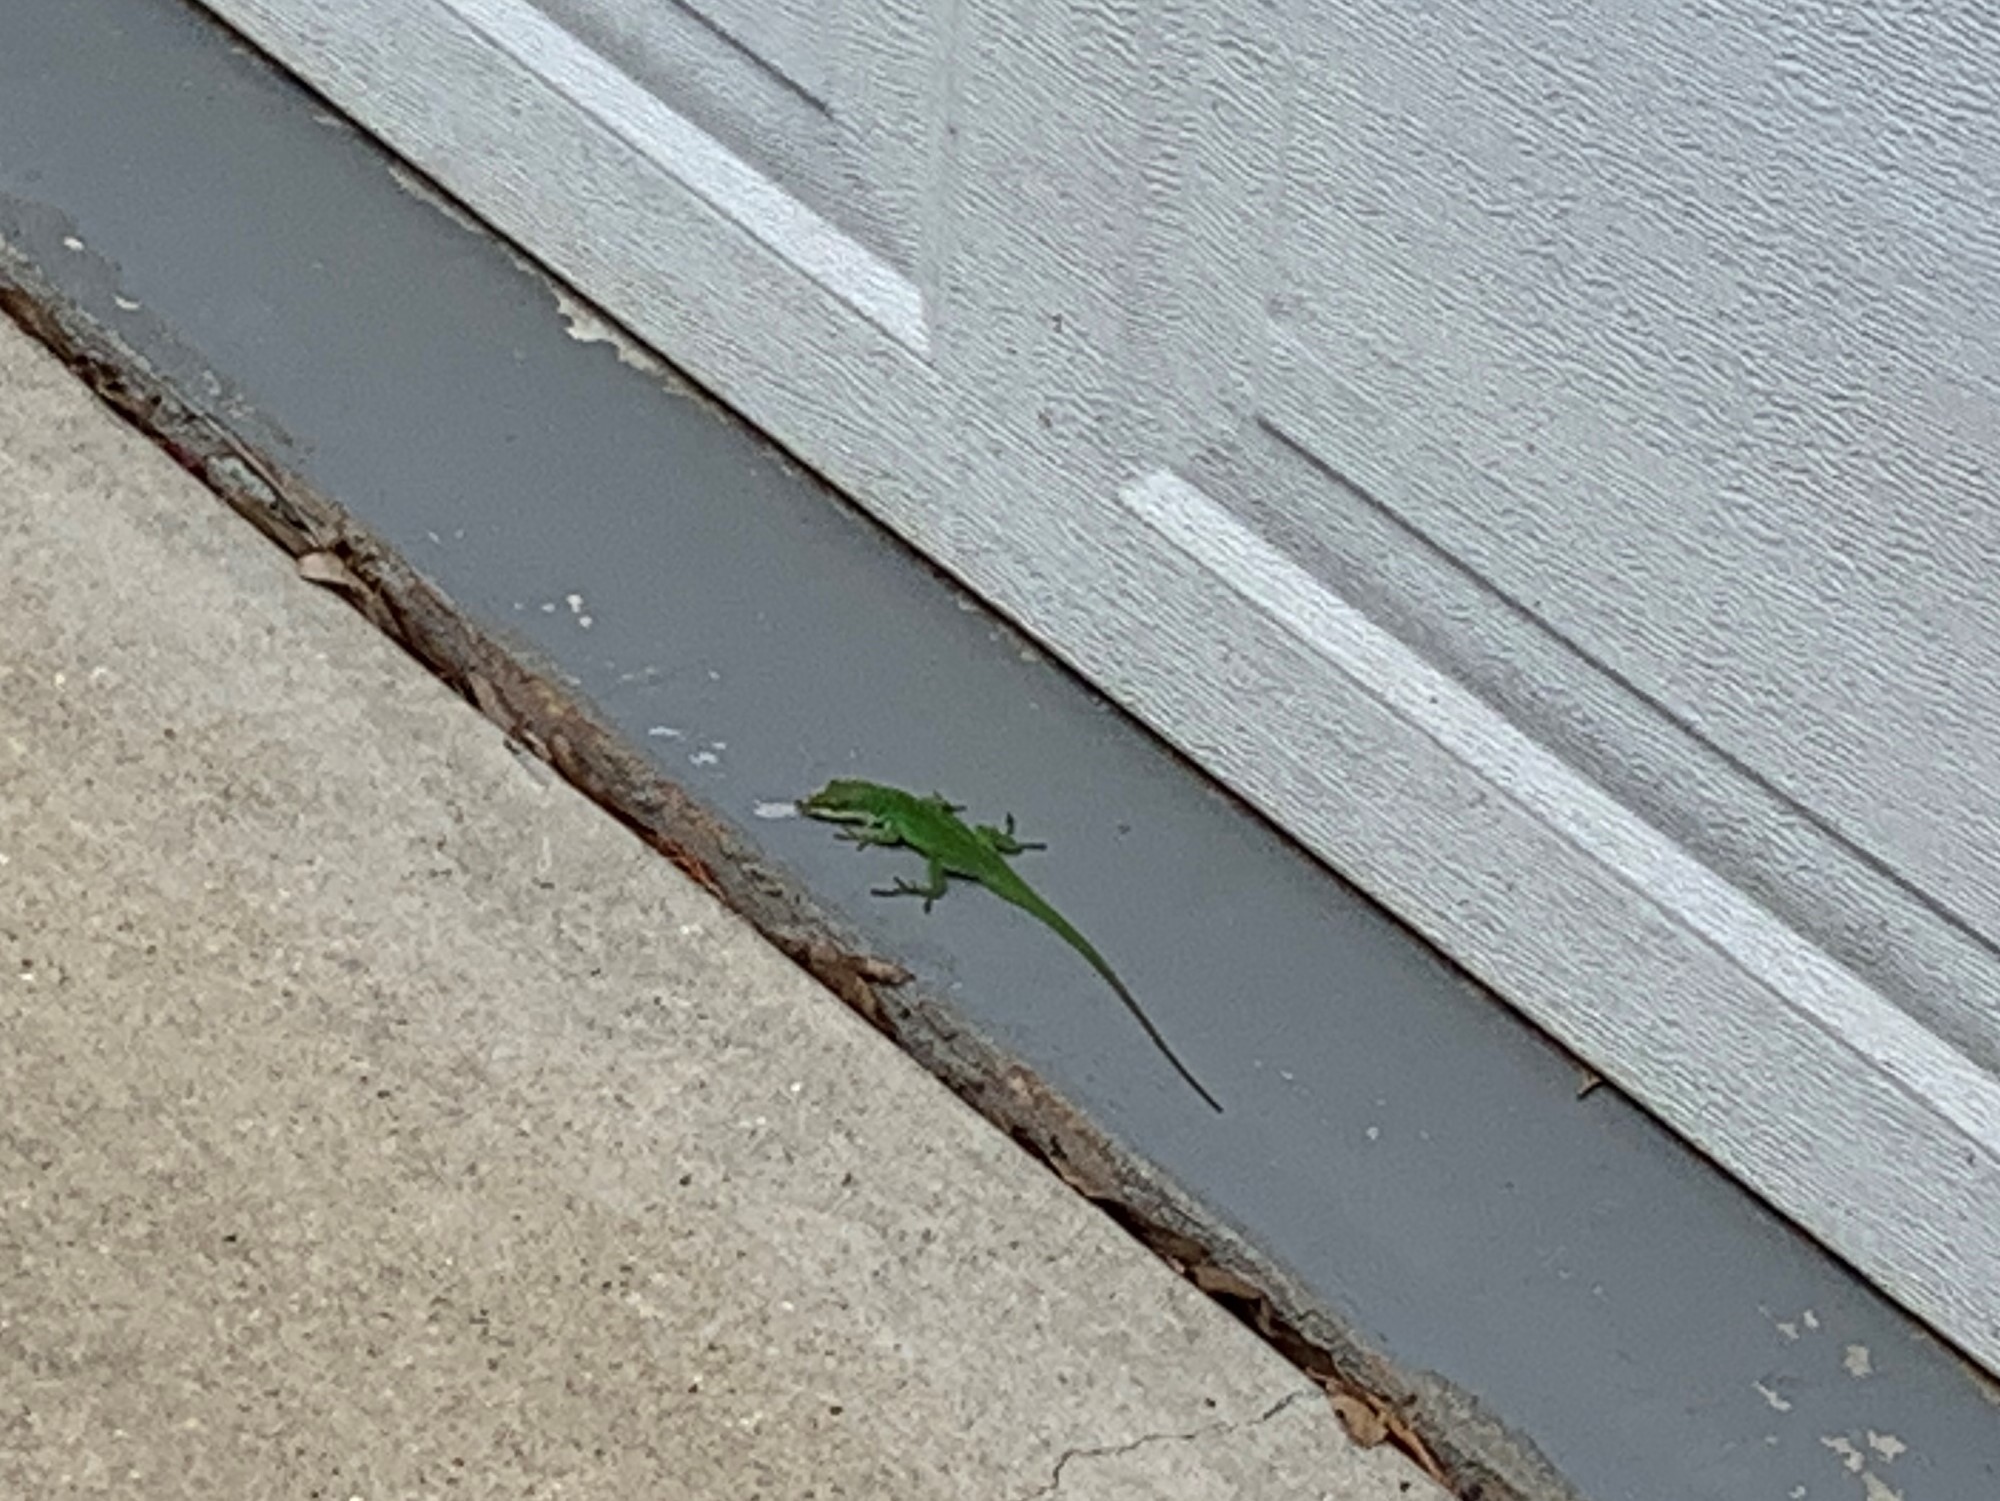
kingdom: Animalia
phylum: Chordata
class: Squamata
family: Dactyloidae
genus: Anolis
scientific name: Anolis carolinensis
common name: Green anole
